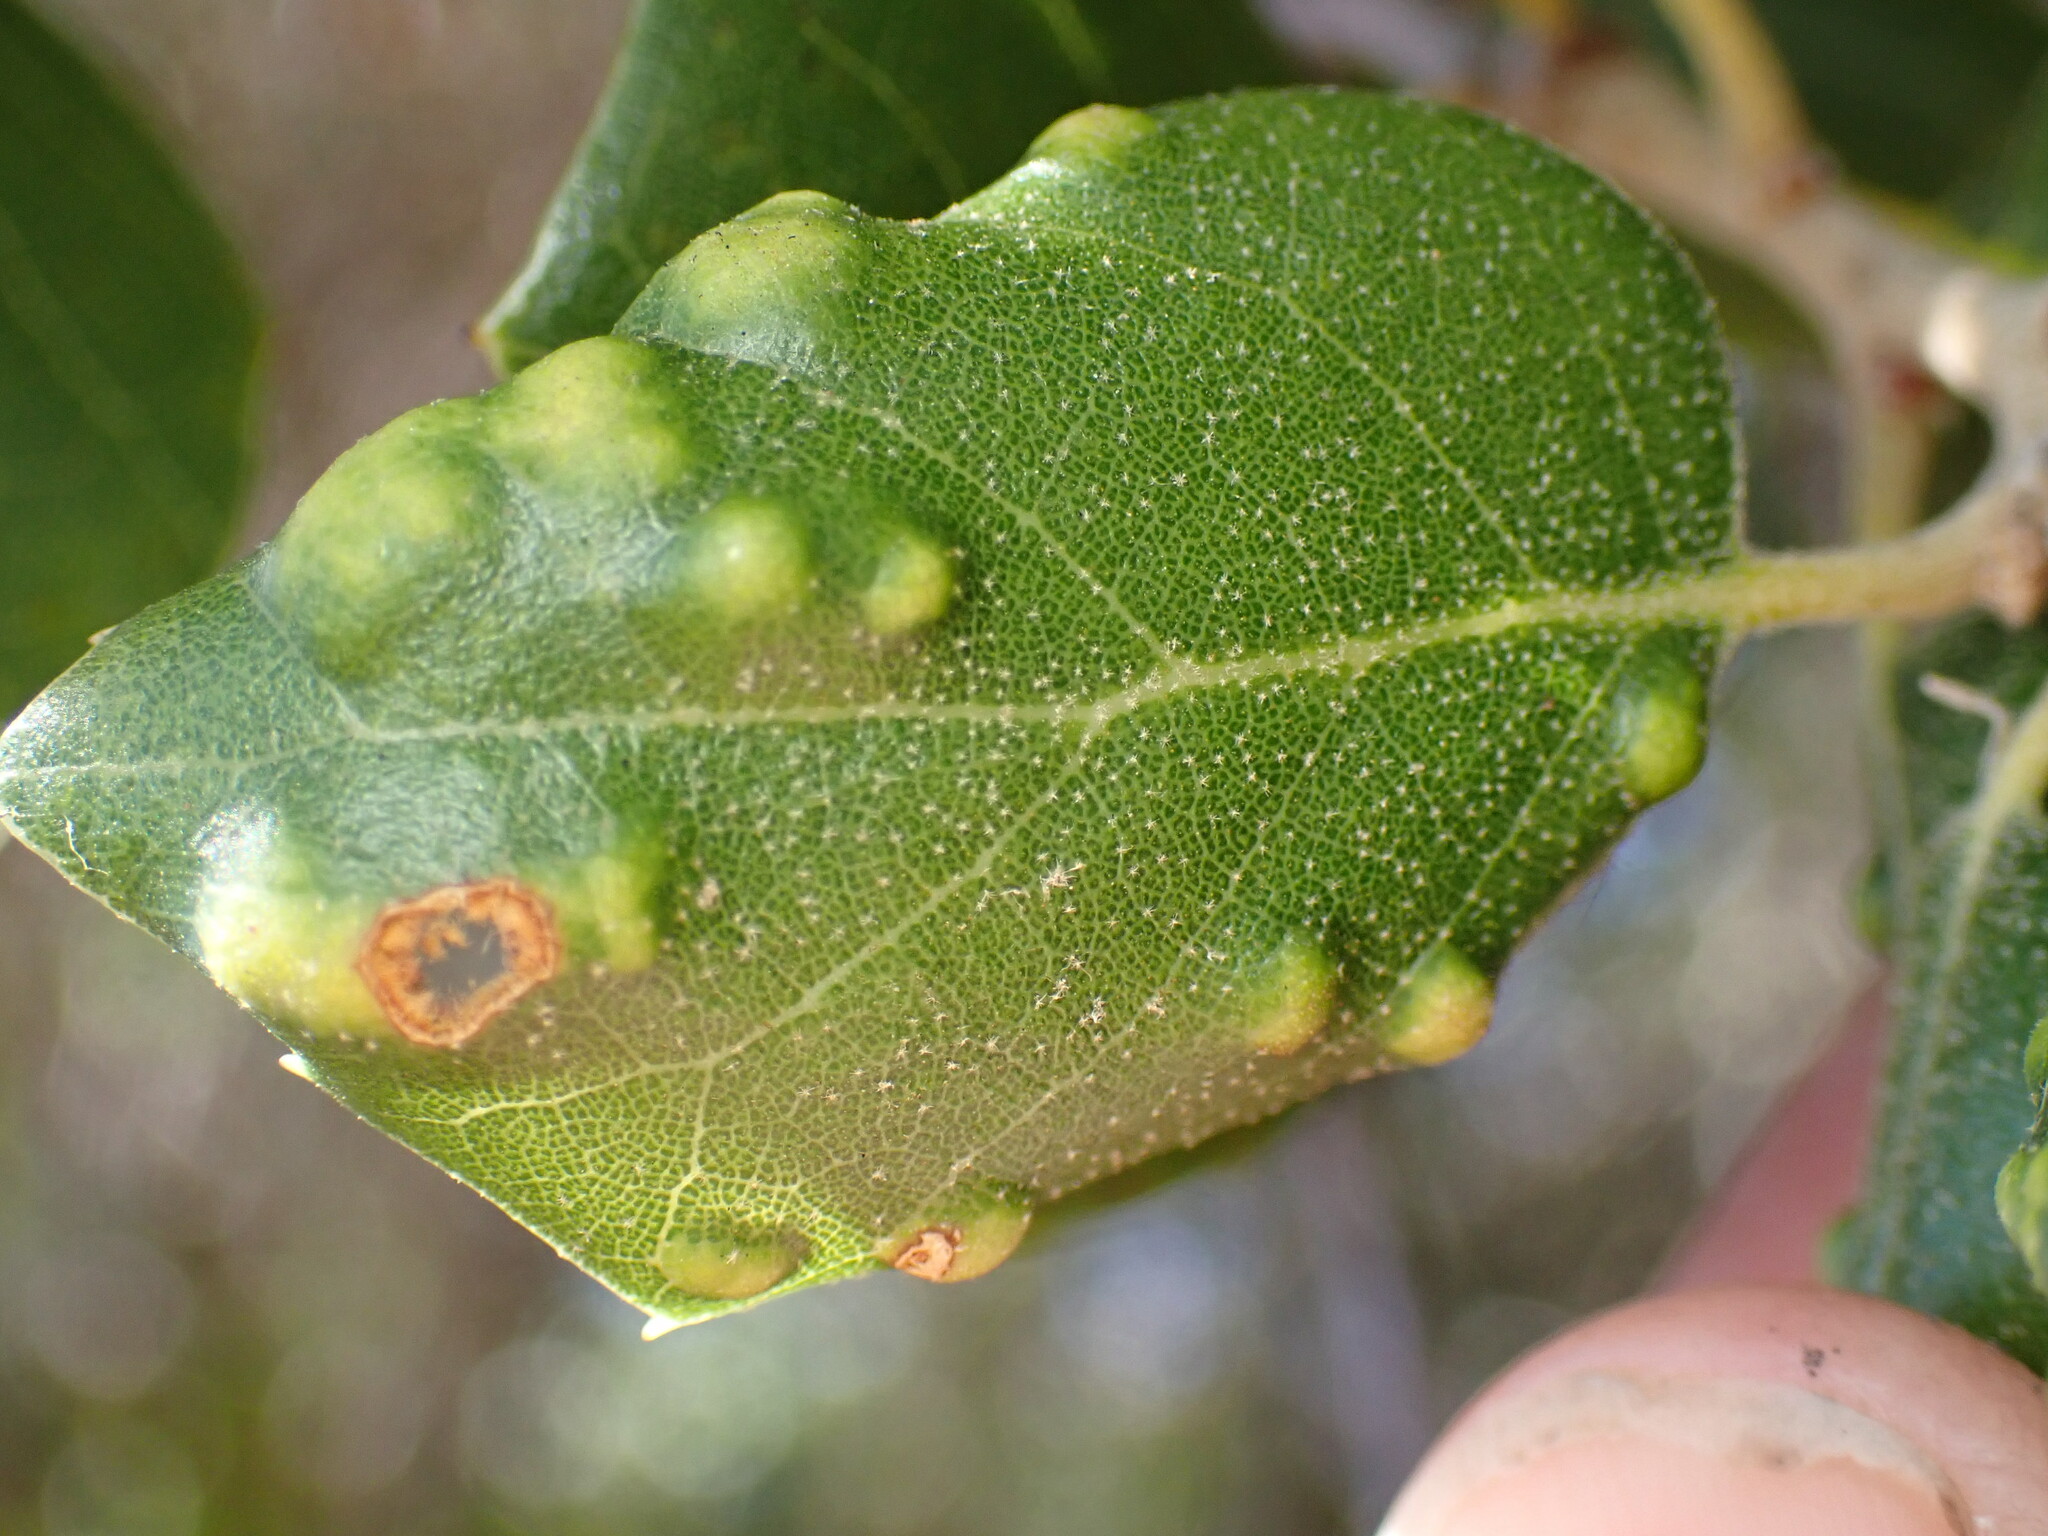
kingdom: Animalia
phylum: Arthropoda
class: Arachnida
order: Trombidiformes
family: Eriophyidae
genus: Aceria
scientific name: Aceria
